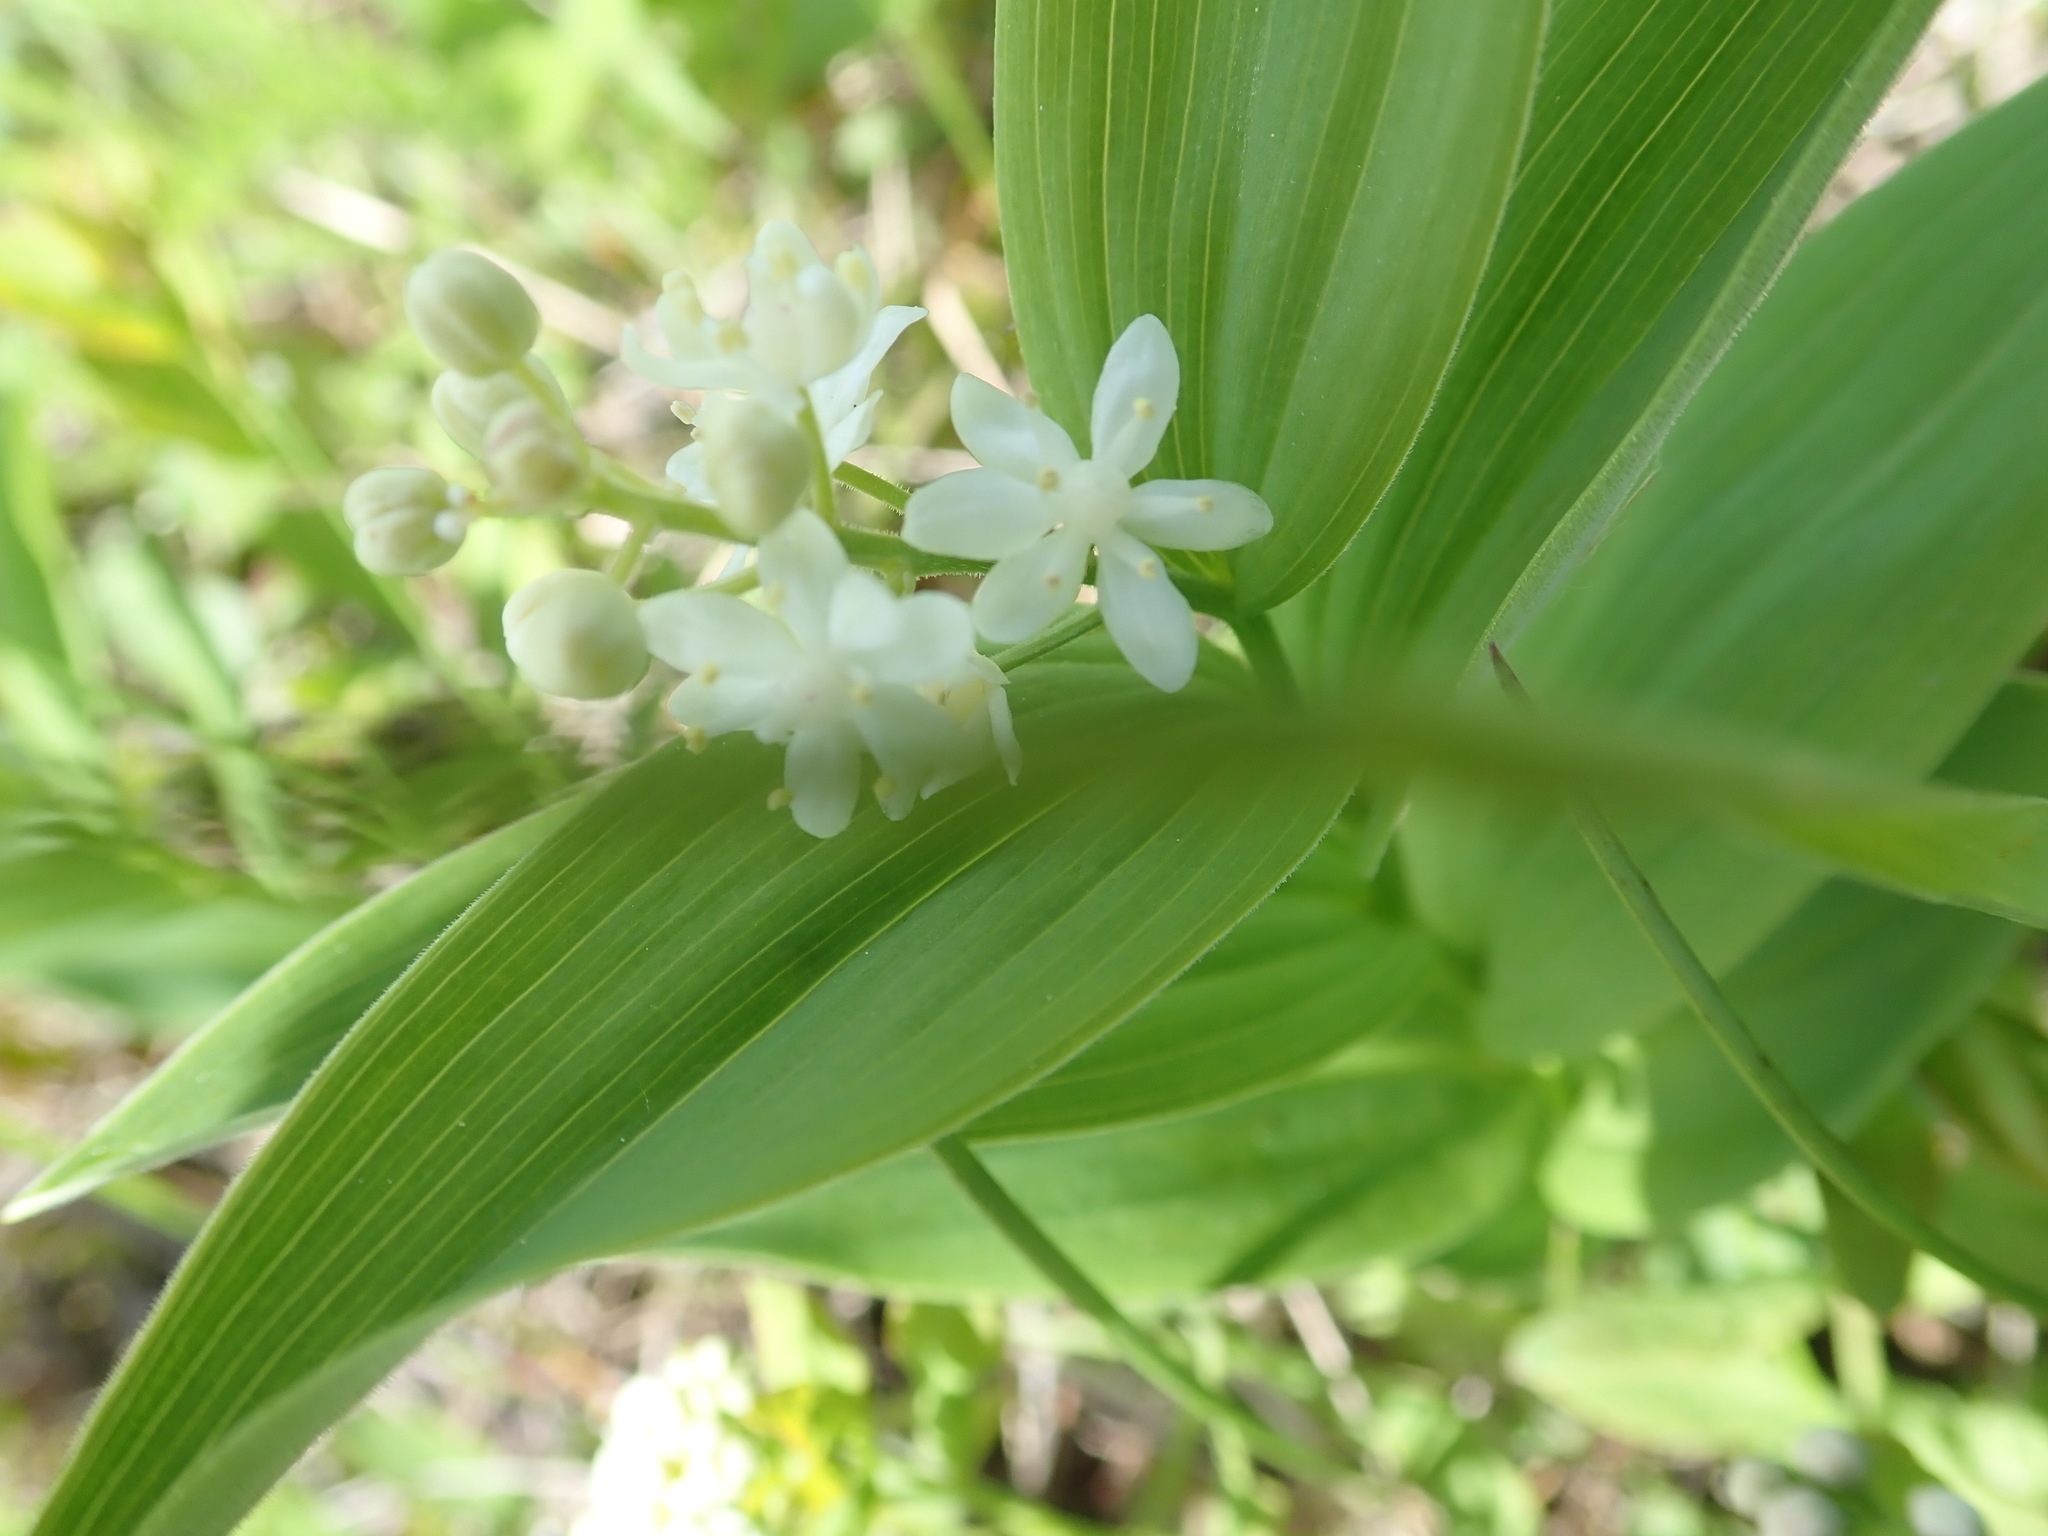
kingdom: Plantae
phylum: Tracheophyta
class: Liliopsida
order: Asparagales
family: Asparagaceae
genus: Maianthemum
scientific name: Maianthemum stellatum
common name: Little false solomon's seal
